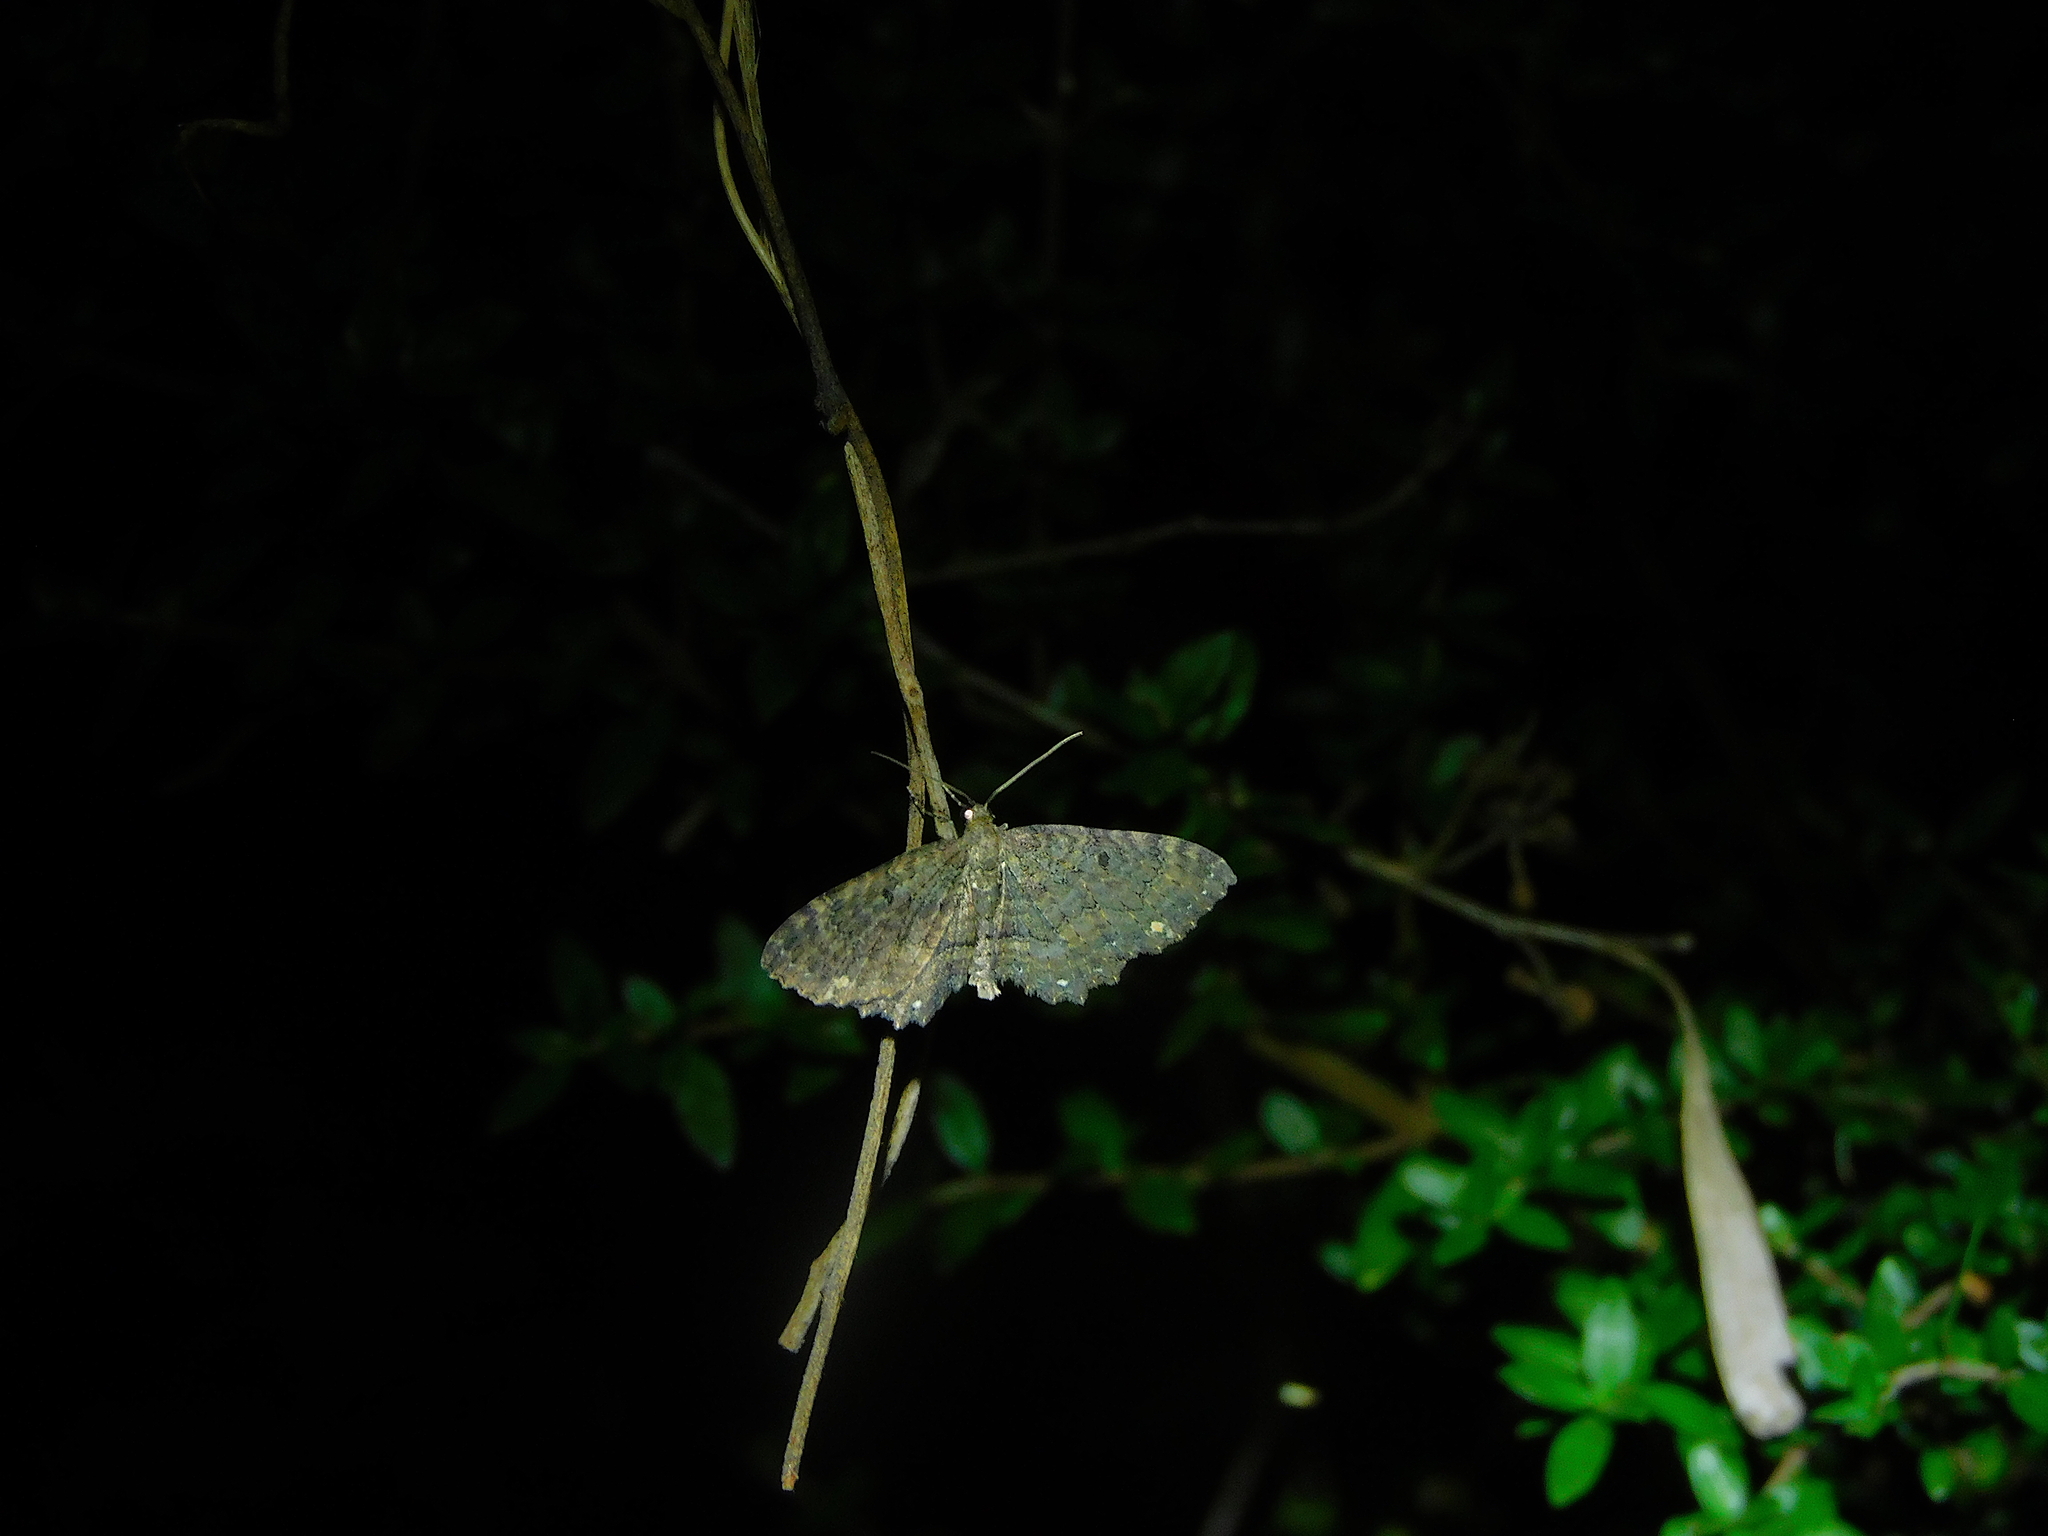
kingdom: Animalia
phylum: Arthropoda
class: Insecta
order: Lepidoptera
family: Geometridae
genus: Eccymatoge
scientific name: Eccymatoge callizona
